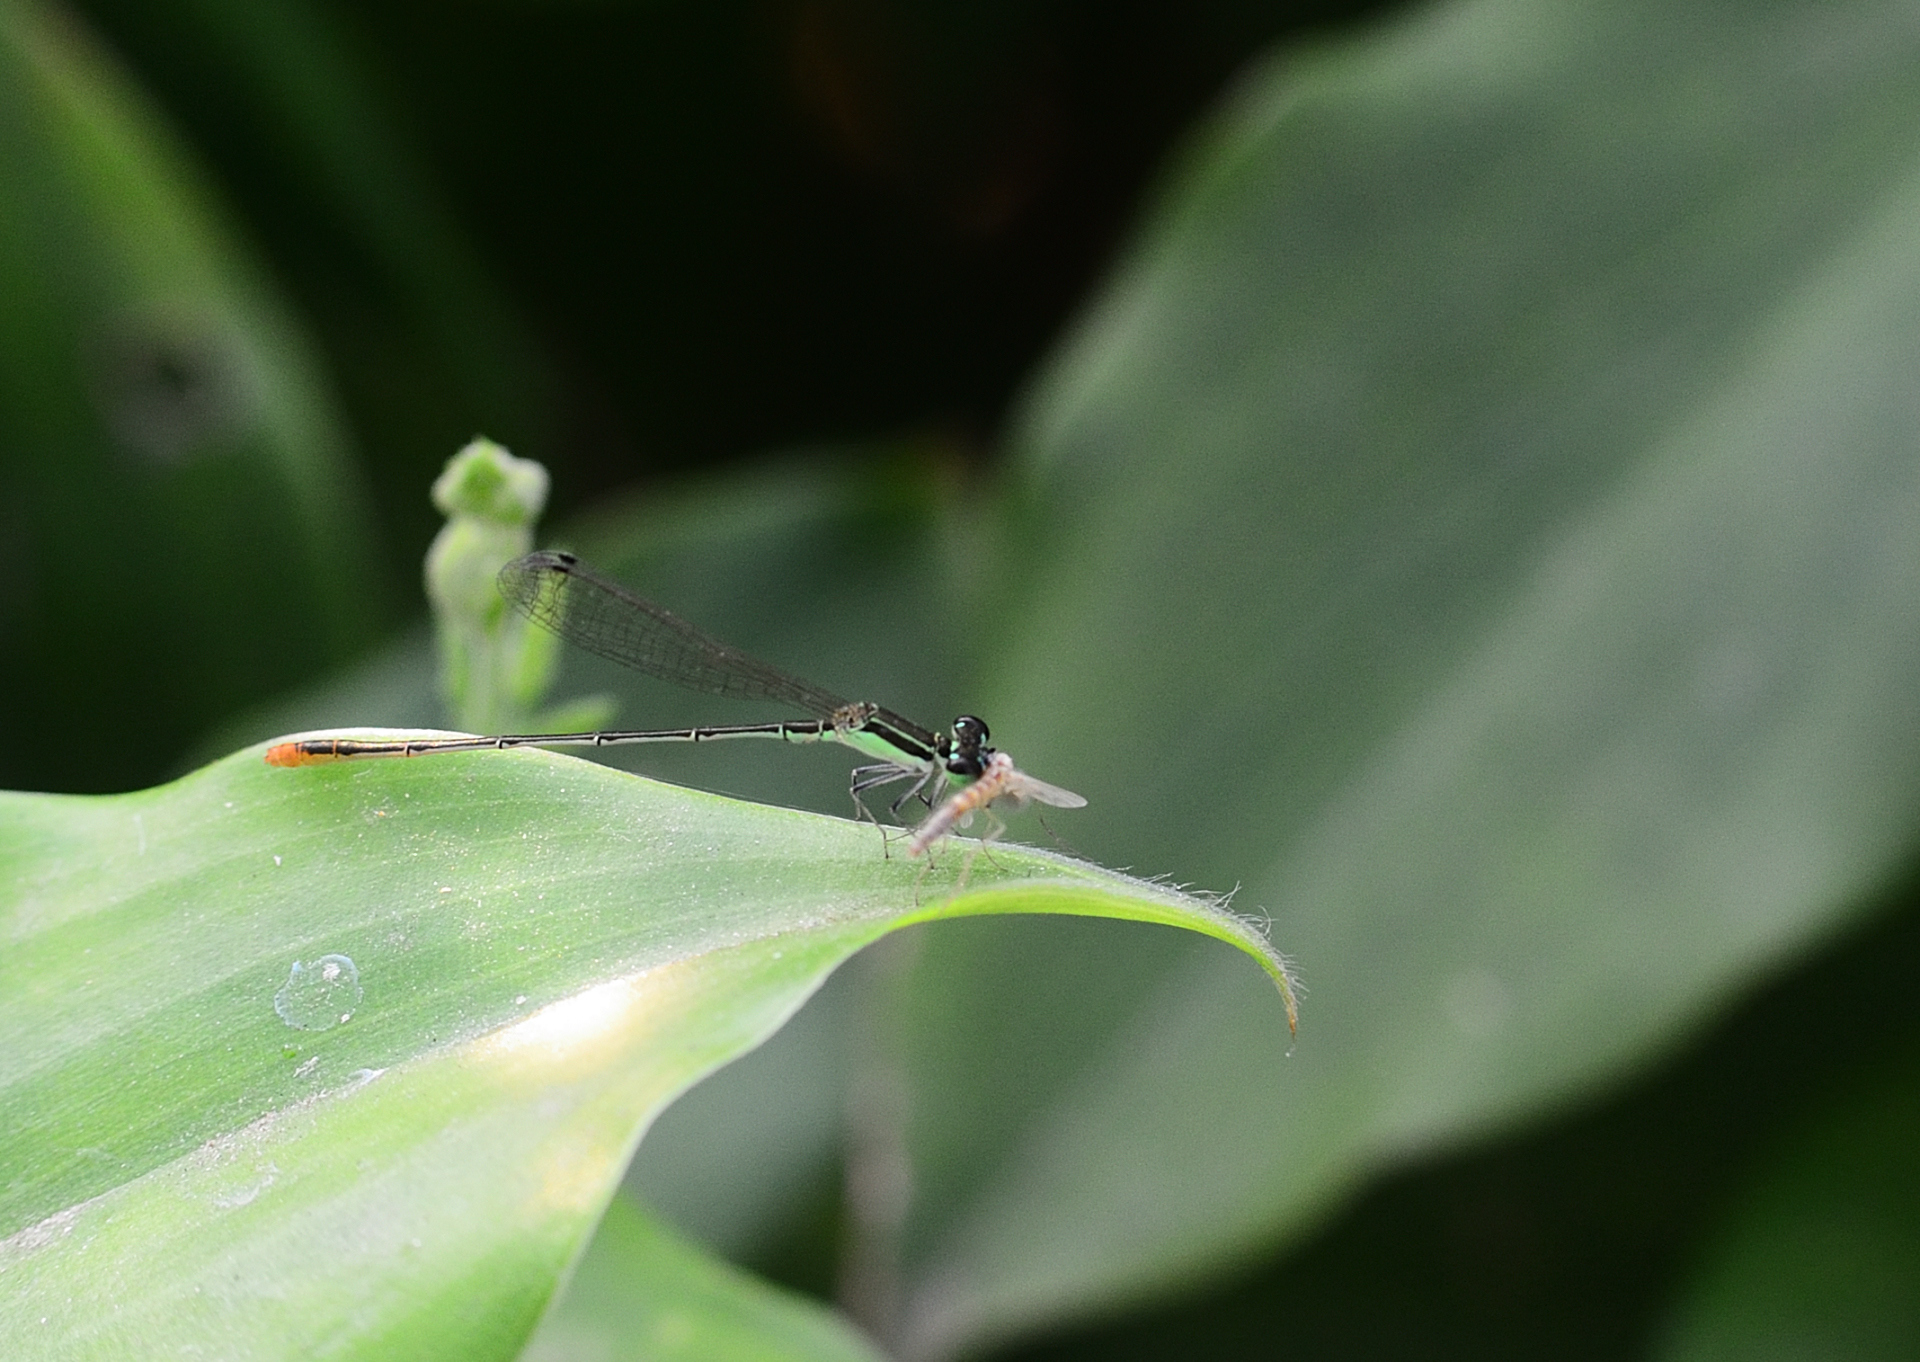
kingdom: Animalia
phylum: Arthropoda
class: Insecta
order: Odonata
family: Coenagrionidae
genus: Agriocnemis
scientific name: Agriocnemis pygmaea
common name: Pygmy wisp
